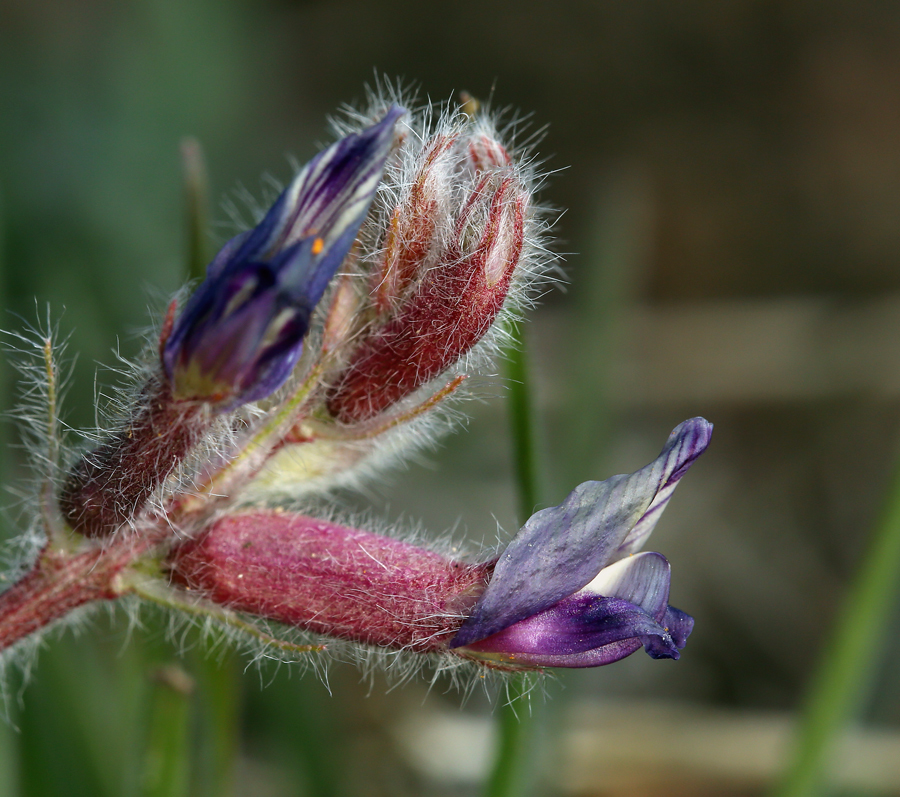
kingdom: Plantae
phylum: Tracheophyta
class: Magnoliopsida
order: Fabales
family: Fabaceae
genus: Astragalus
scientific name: Astragalus malacus
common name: Shaggy milk-vetch
